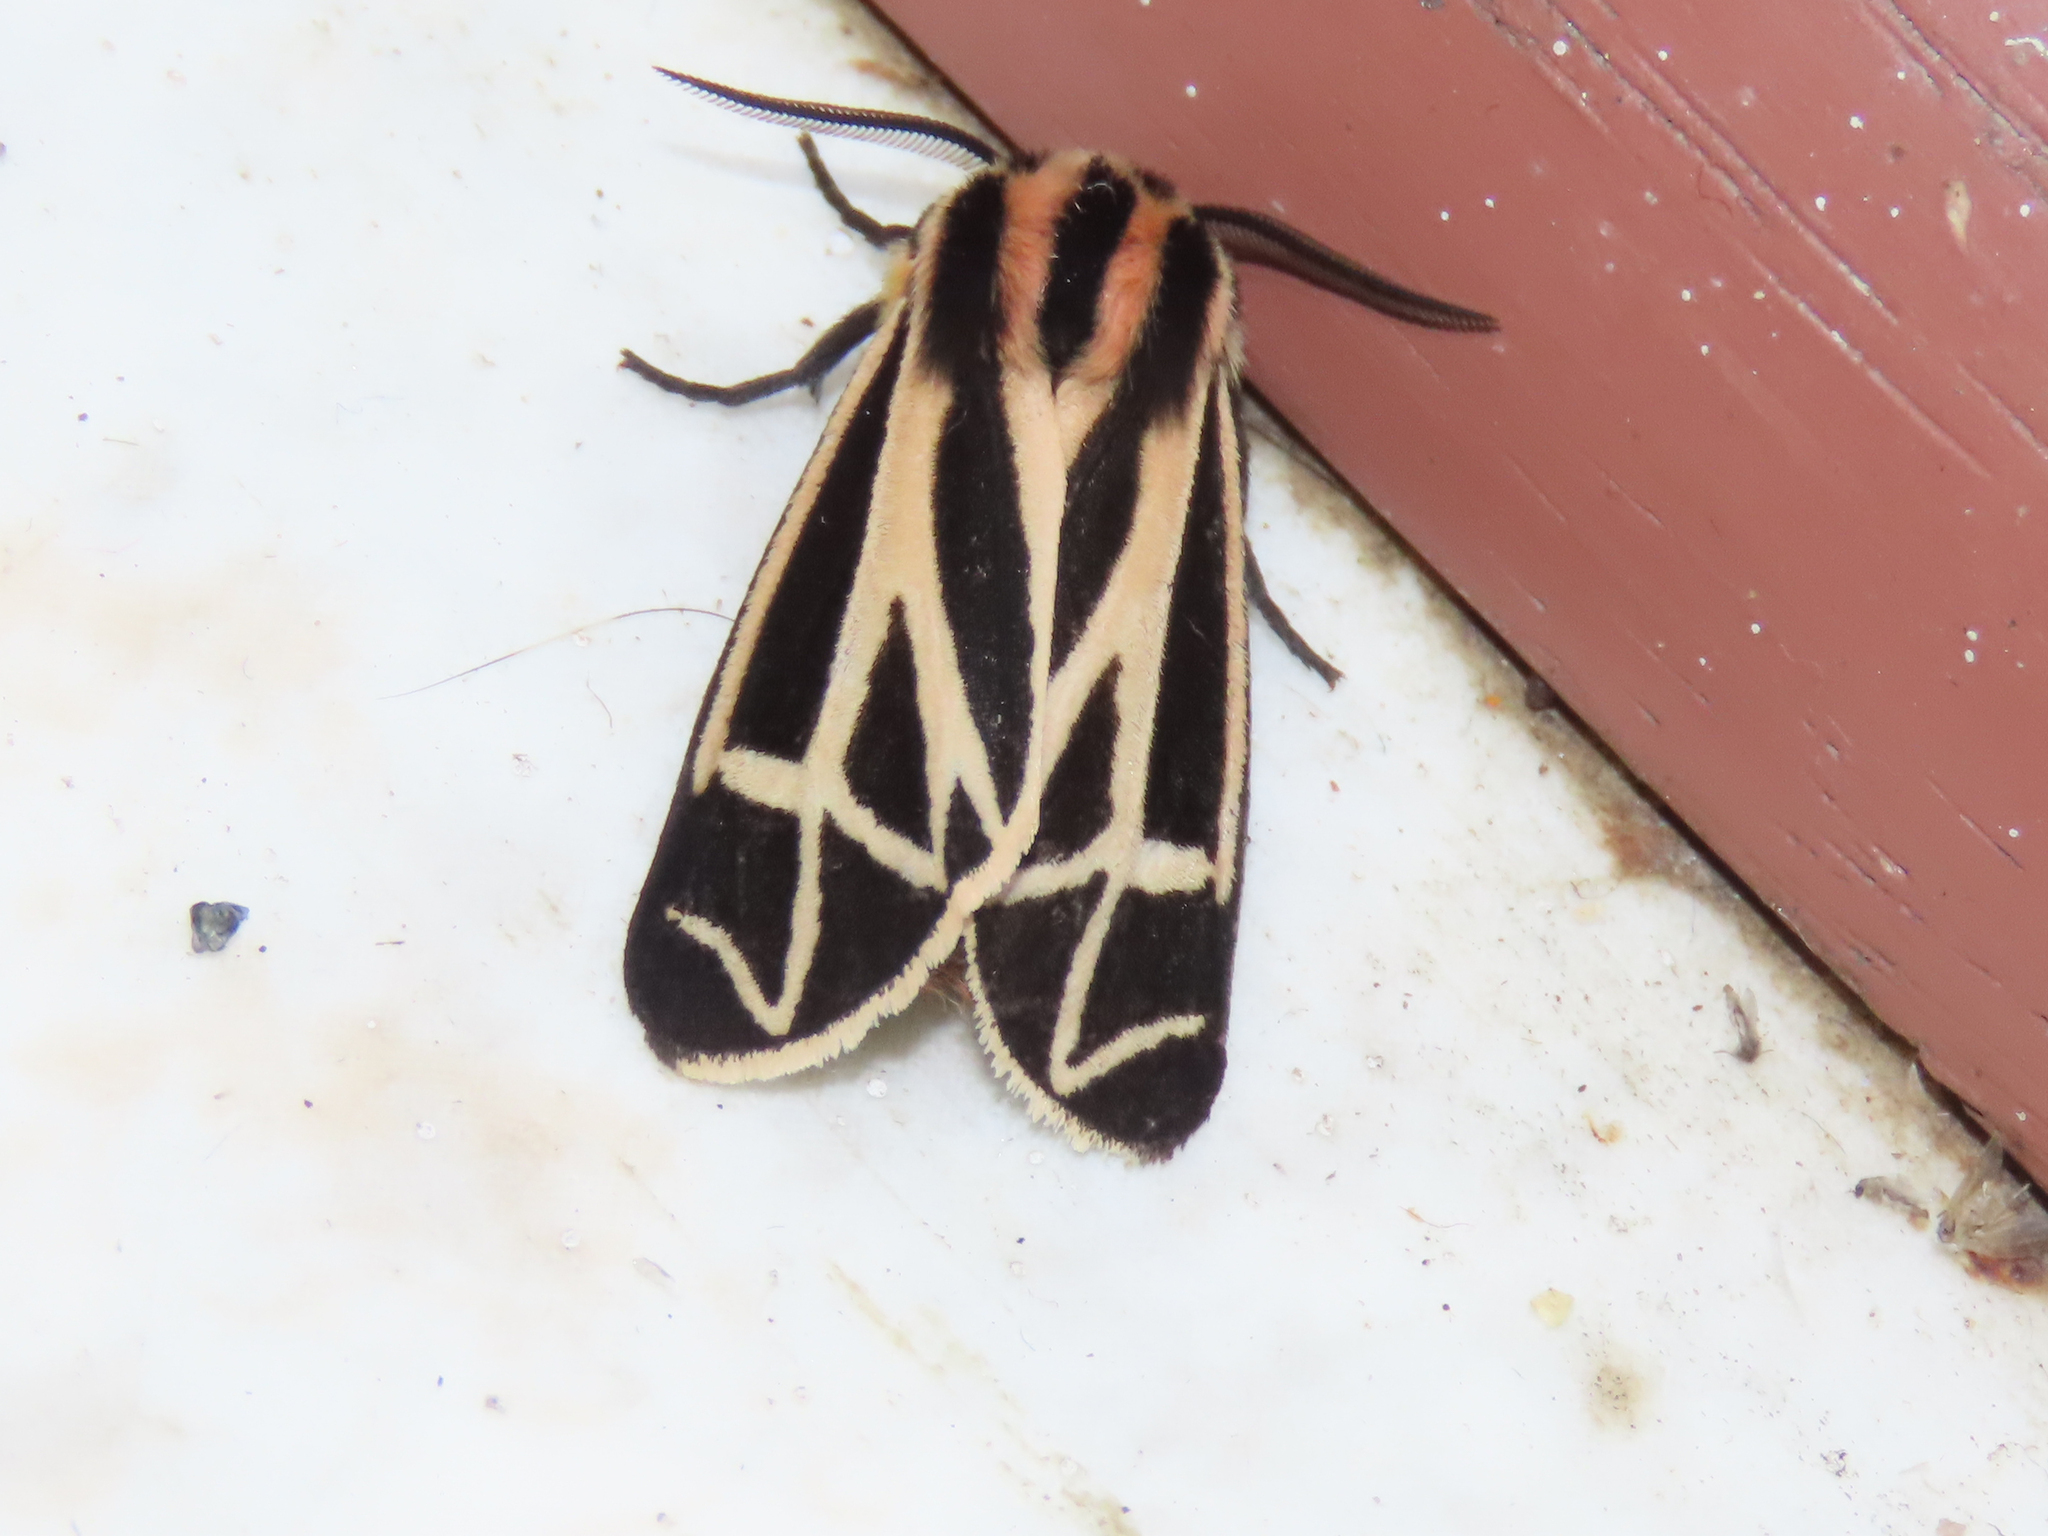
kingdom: Animalia
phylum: Arthropoda
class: Insecta
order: Lepidoptera
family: Erebidae
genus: Apantesis
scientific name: Apantesis carlotta
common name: Carlotta's tiger moth
